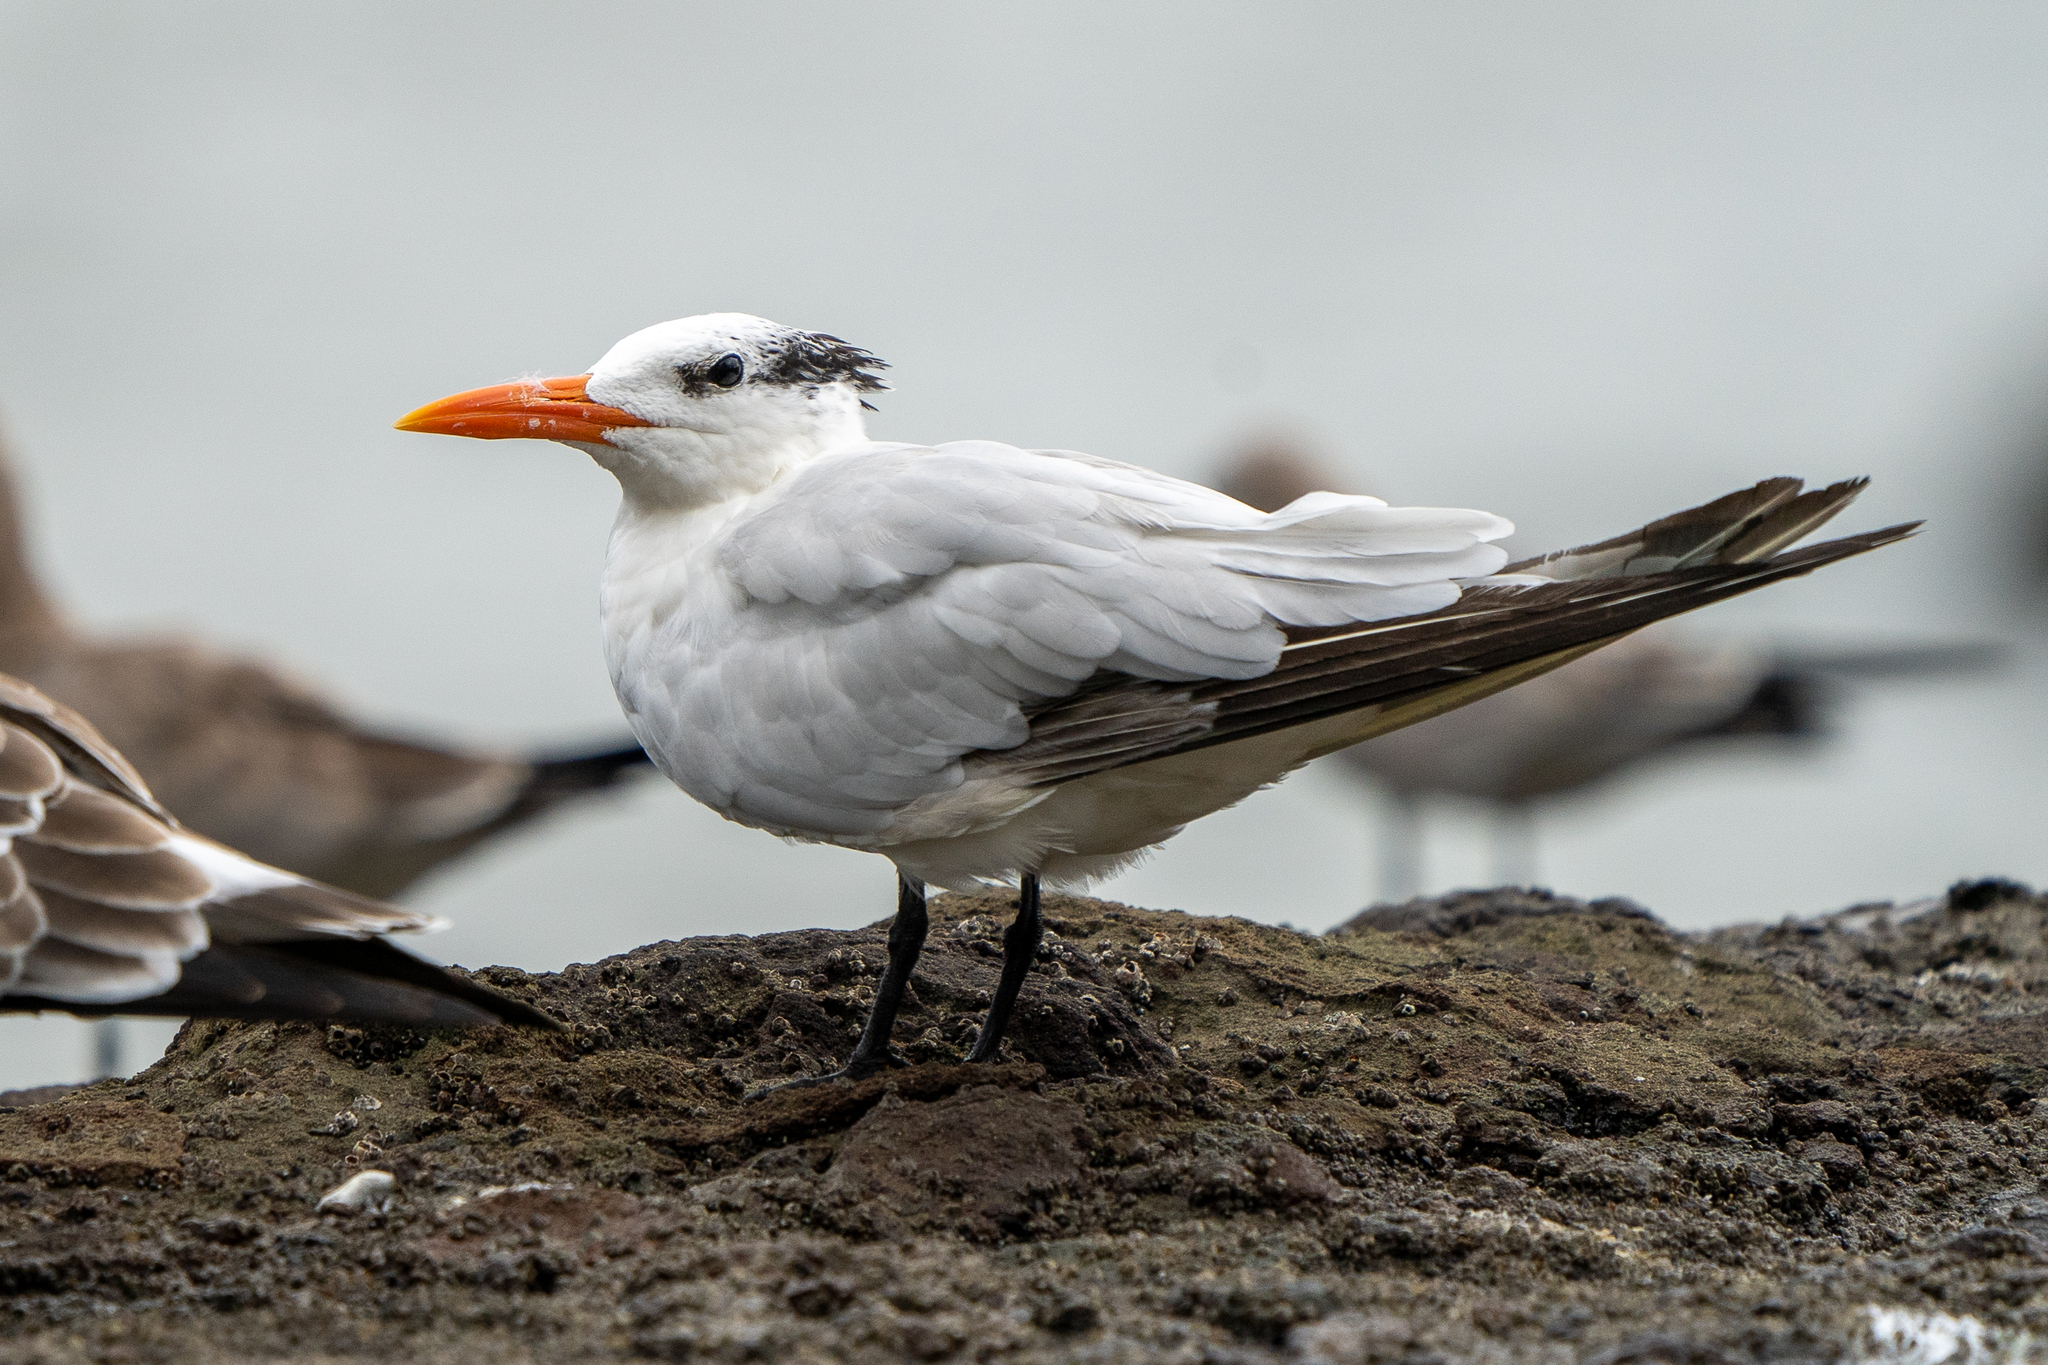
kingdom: Animalia
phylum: Chordata
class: Aves
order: Charadriiformes
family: Laridae
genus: Thalasseus
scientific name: Thalasseus maximus
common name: Royal tern
